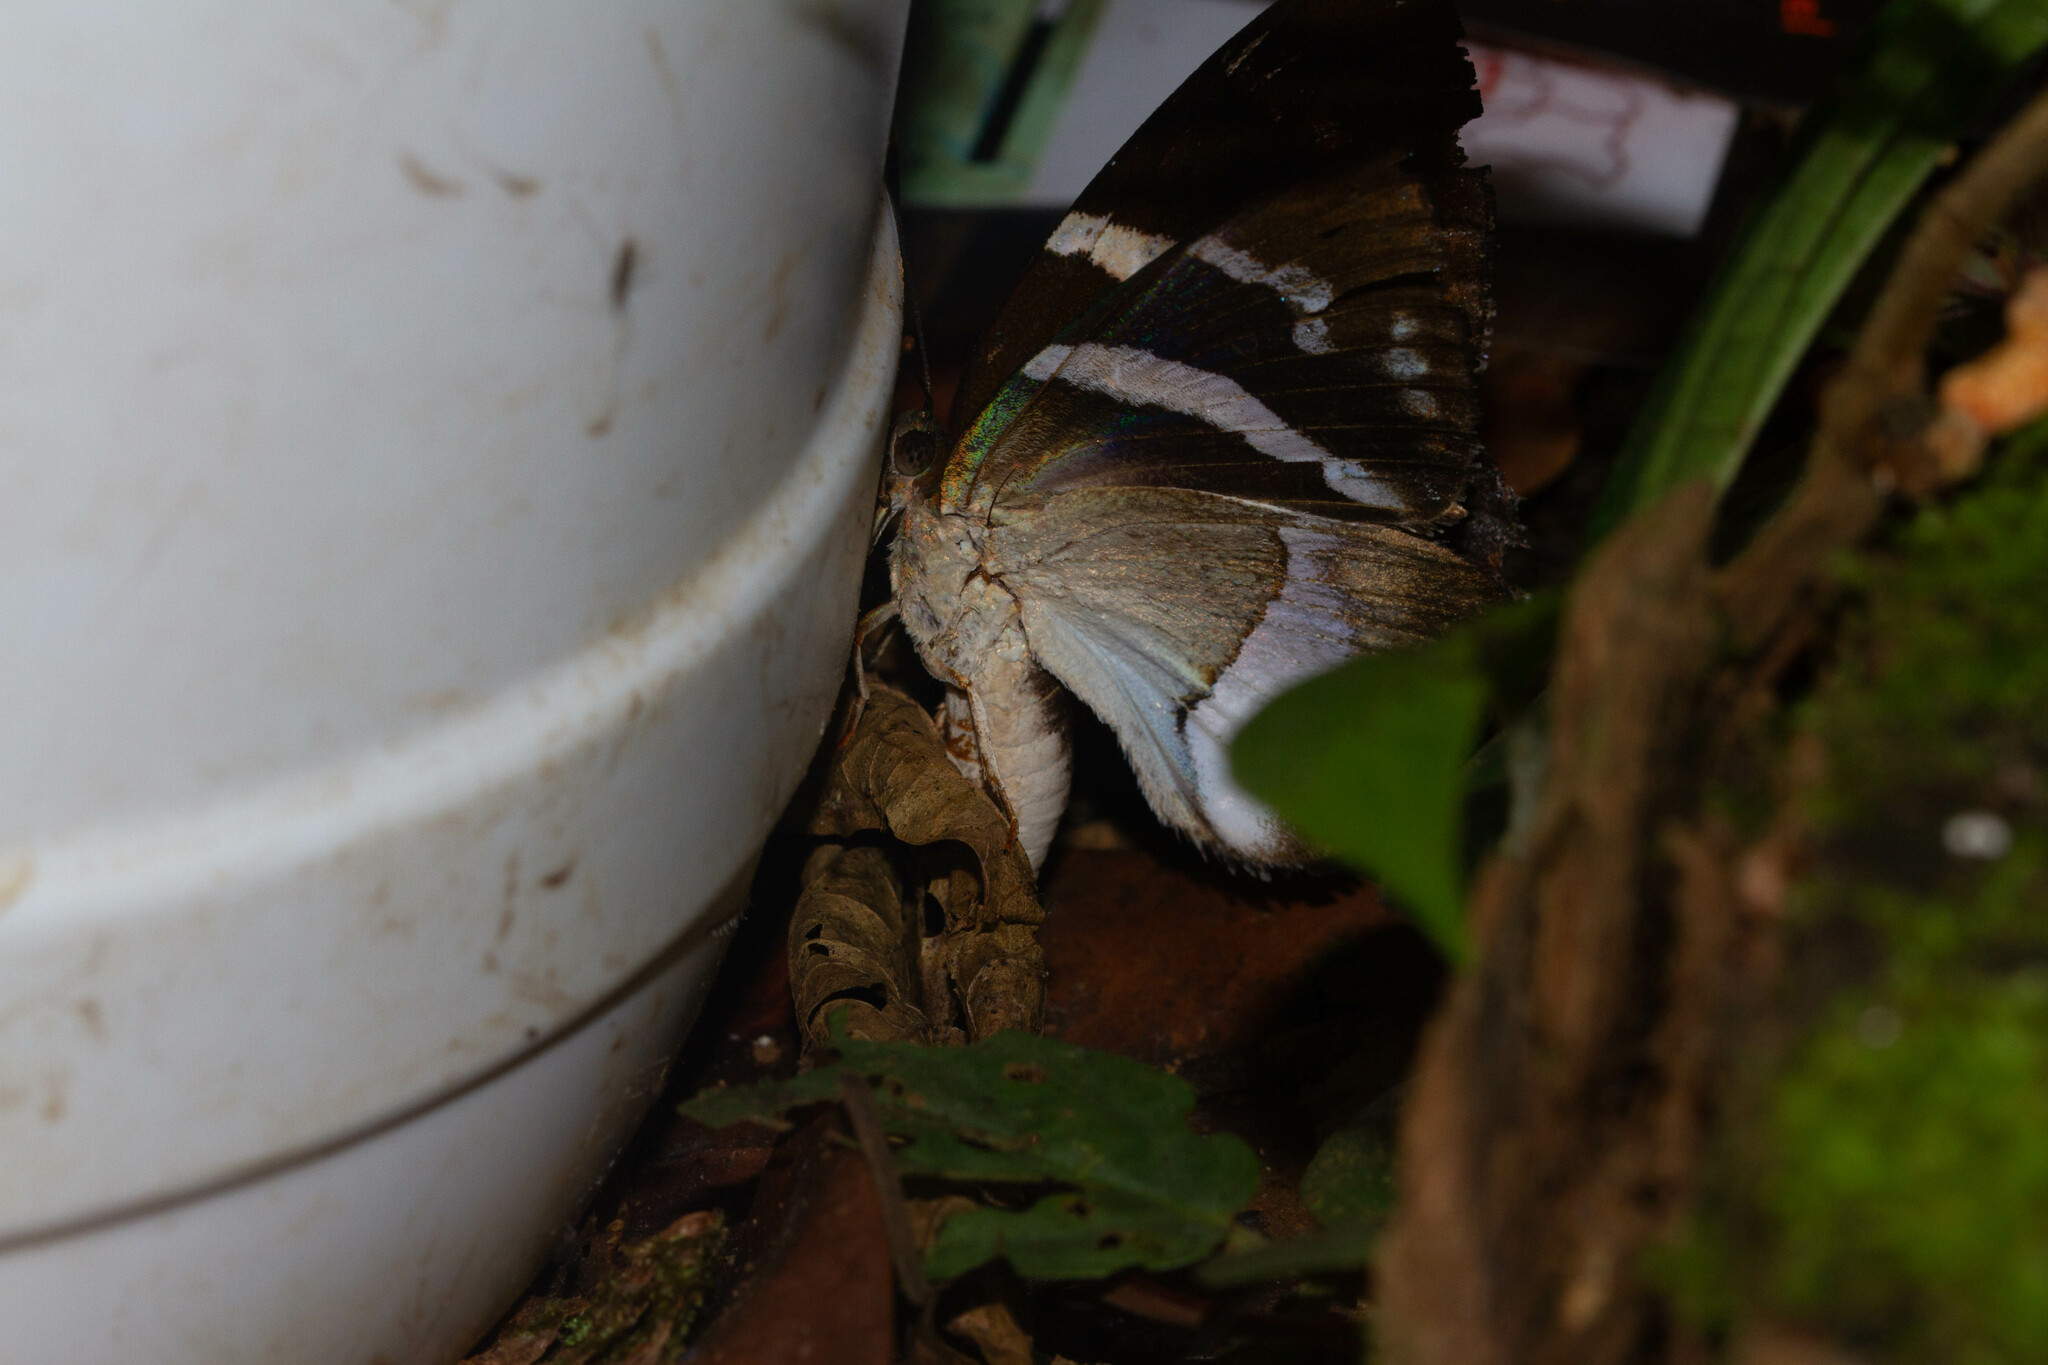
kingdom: Animalia
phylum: Arthropoda
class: Insecta
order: Lepidoptera
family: Castniidae
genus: Castnia
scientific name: Castnia licus
